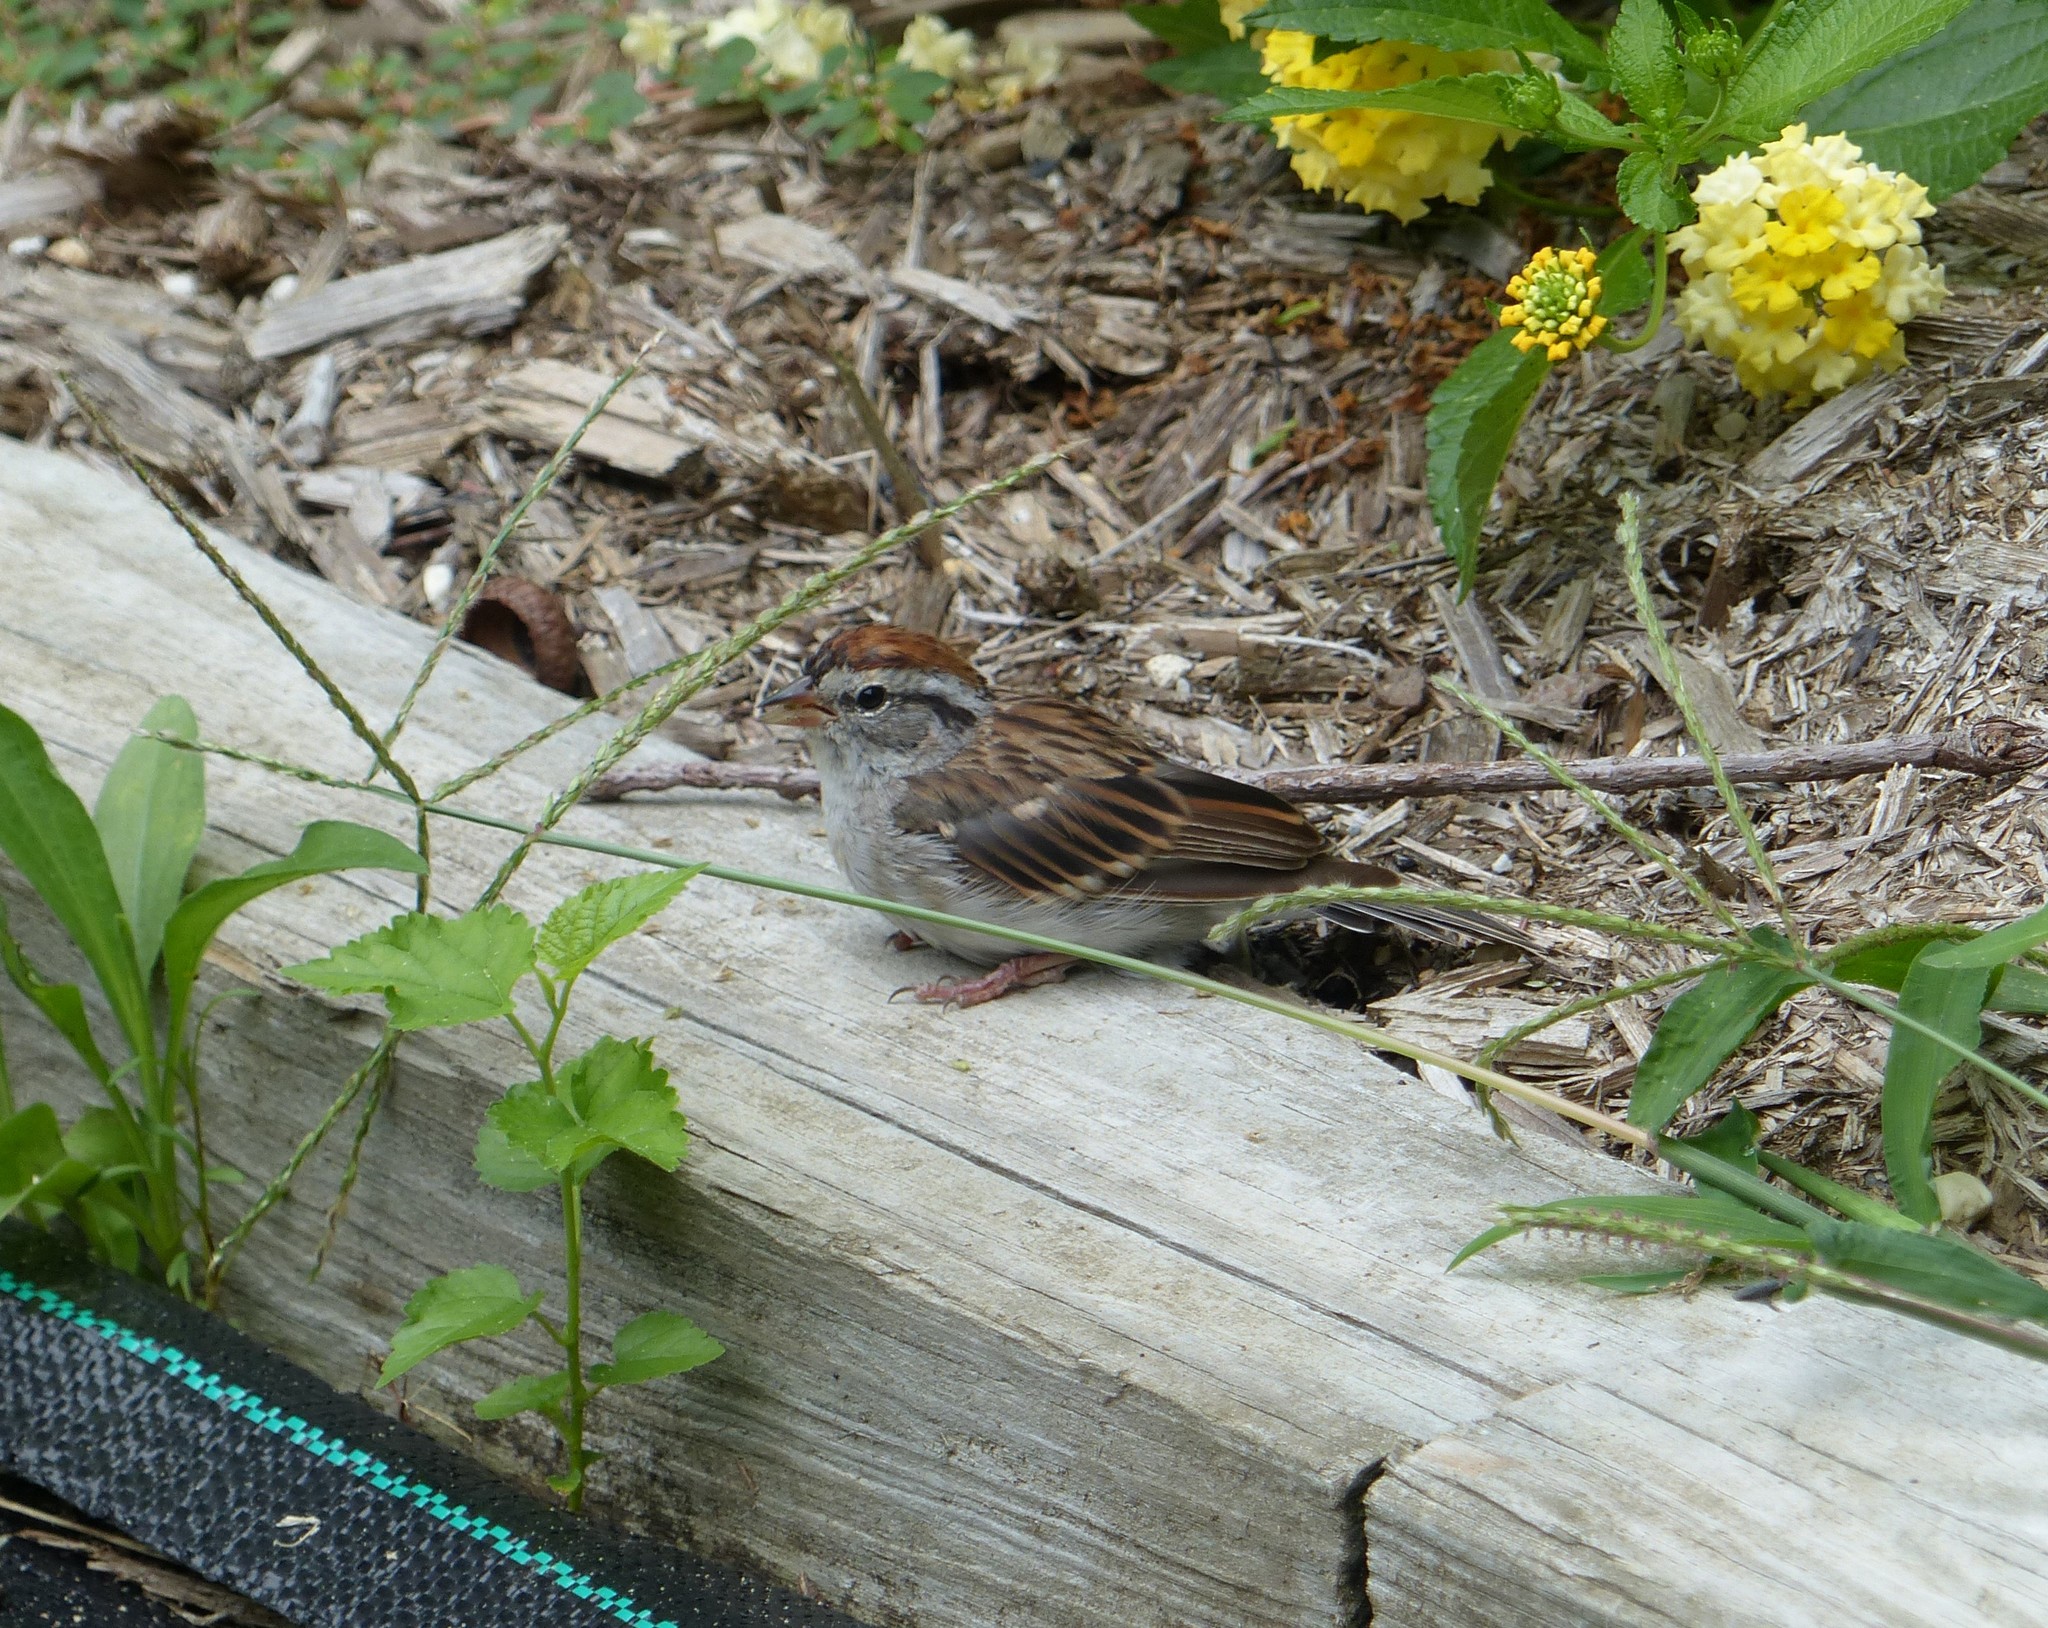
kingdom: Animalia
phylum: Chordata
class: Aves
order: Passeriformes
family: Passerellidae
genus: Spizella
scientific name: Spizella passerina
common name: Chipping sparrow
